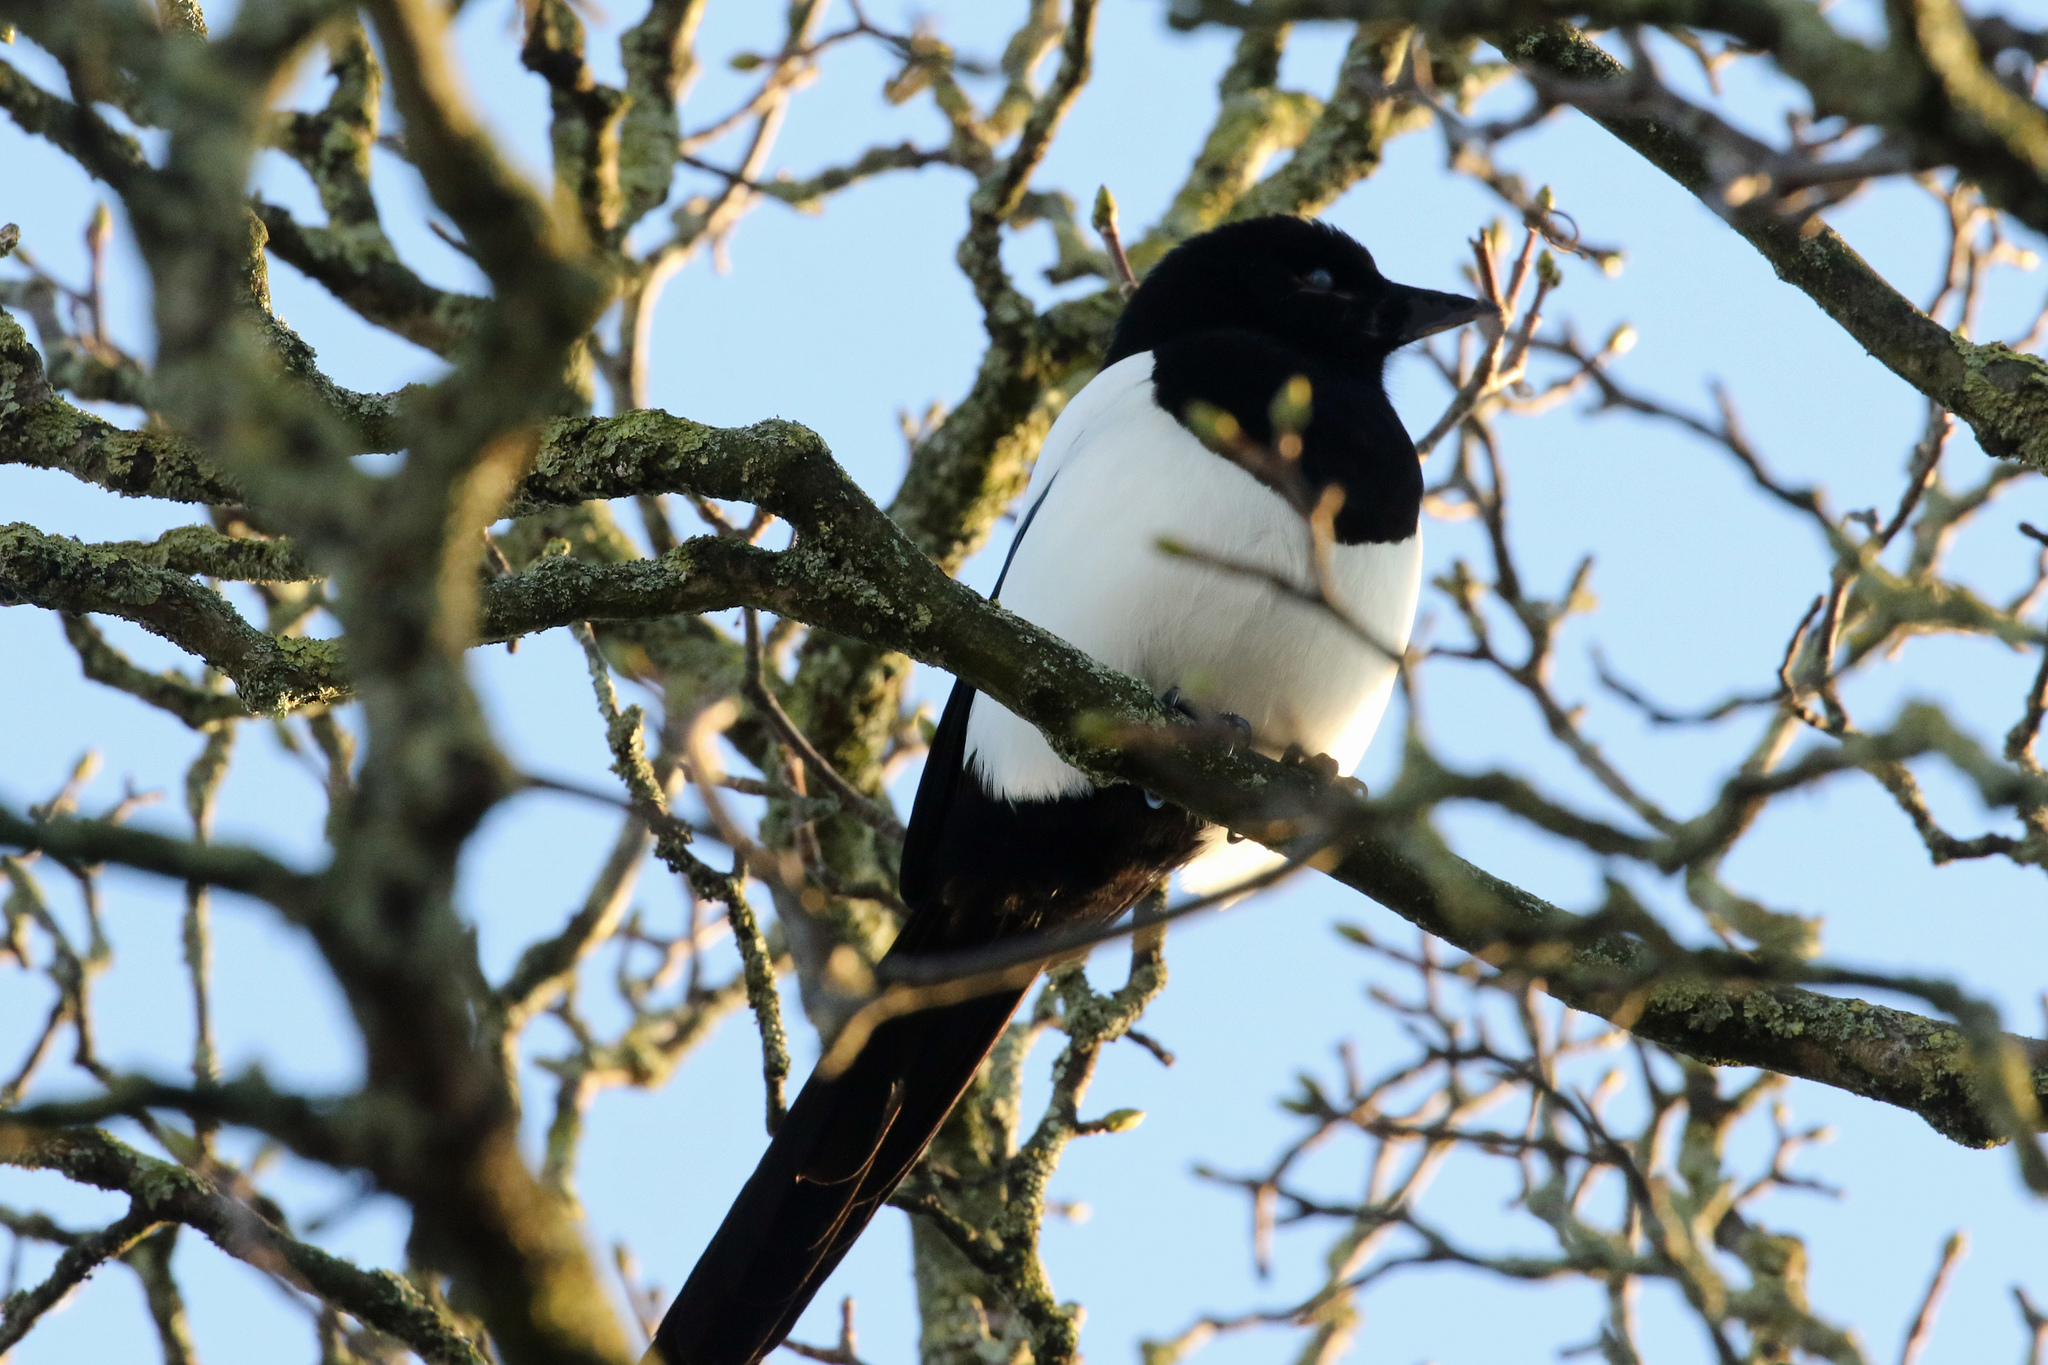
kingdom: Animalia
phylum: Chordata
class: Aves
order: Passeriformes
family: Corvidae
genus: Pica
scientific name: Pica pica
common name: Eurasian magpie
